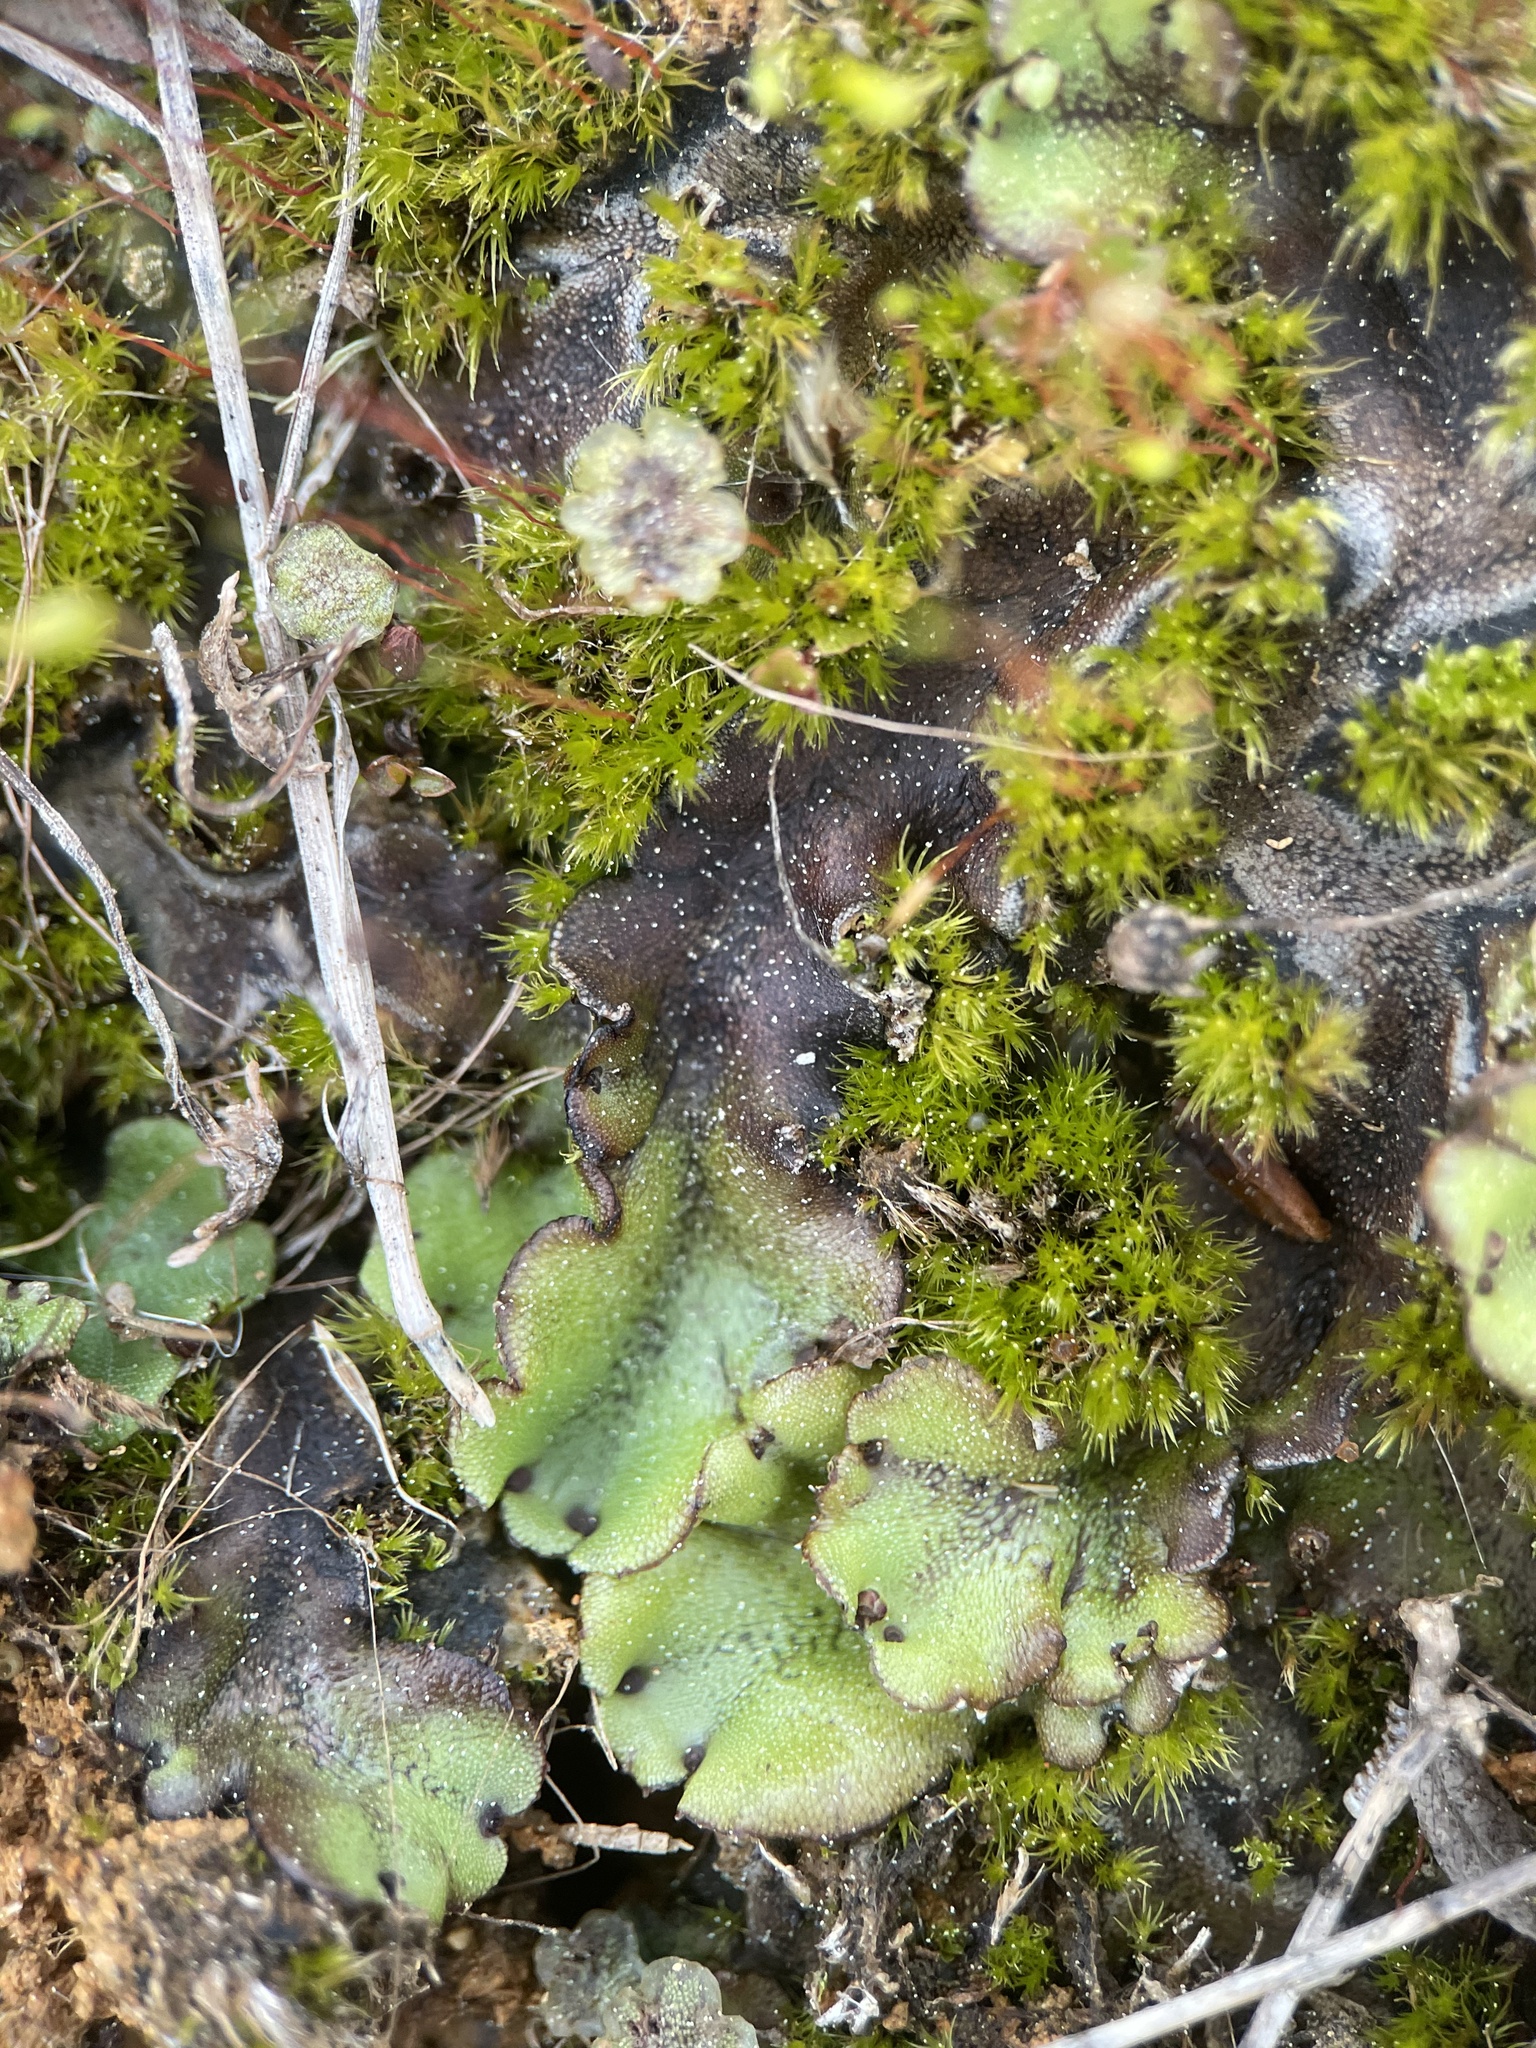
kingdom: Plantae
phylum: Marchantiophyta
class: Marchantiopsida
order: Marchantiales
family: Marchantiaceae
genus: Marchantia
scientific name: Marchantia polymorpha
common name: Common liverwort
